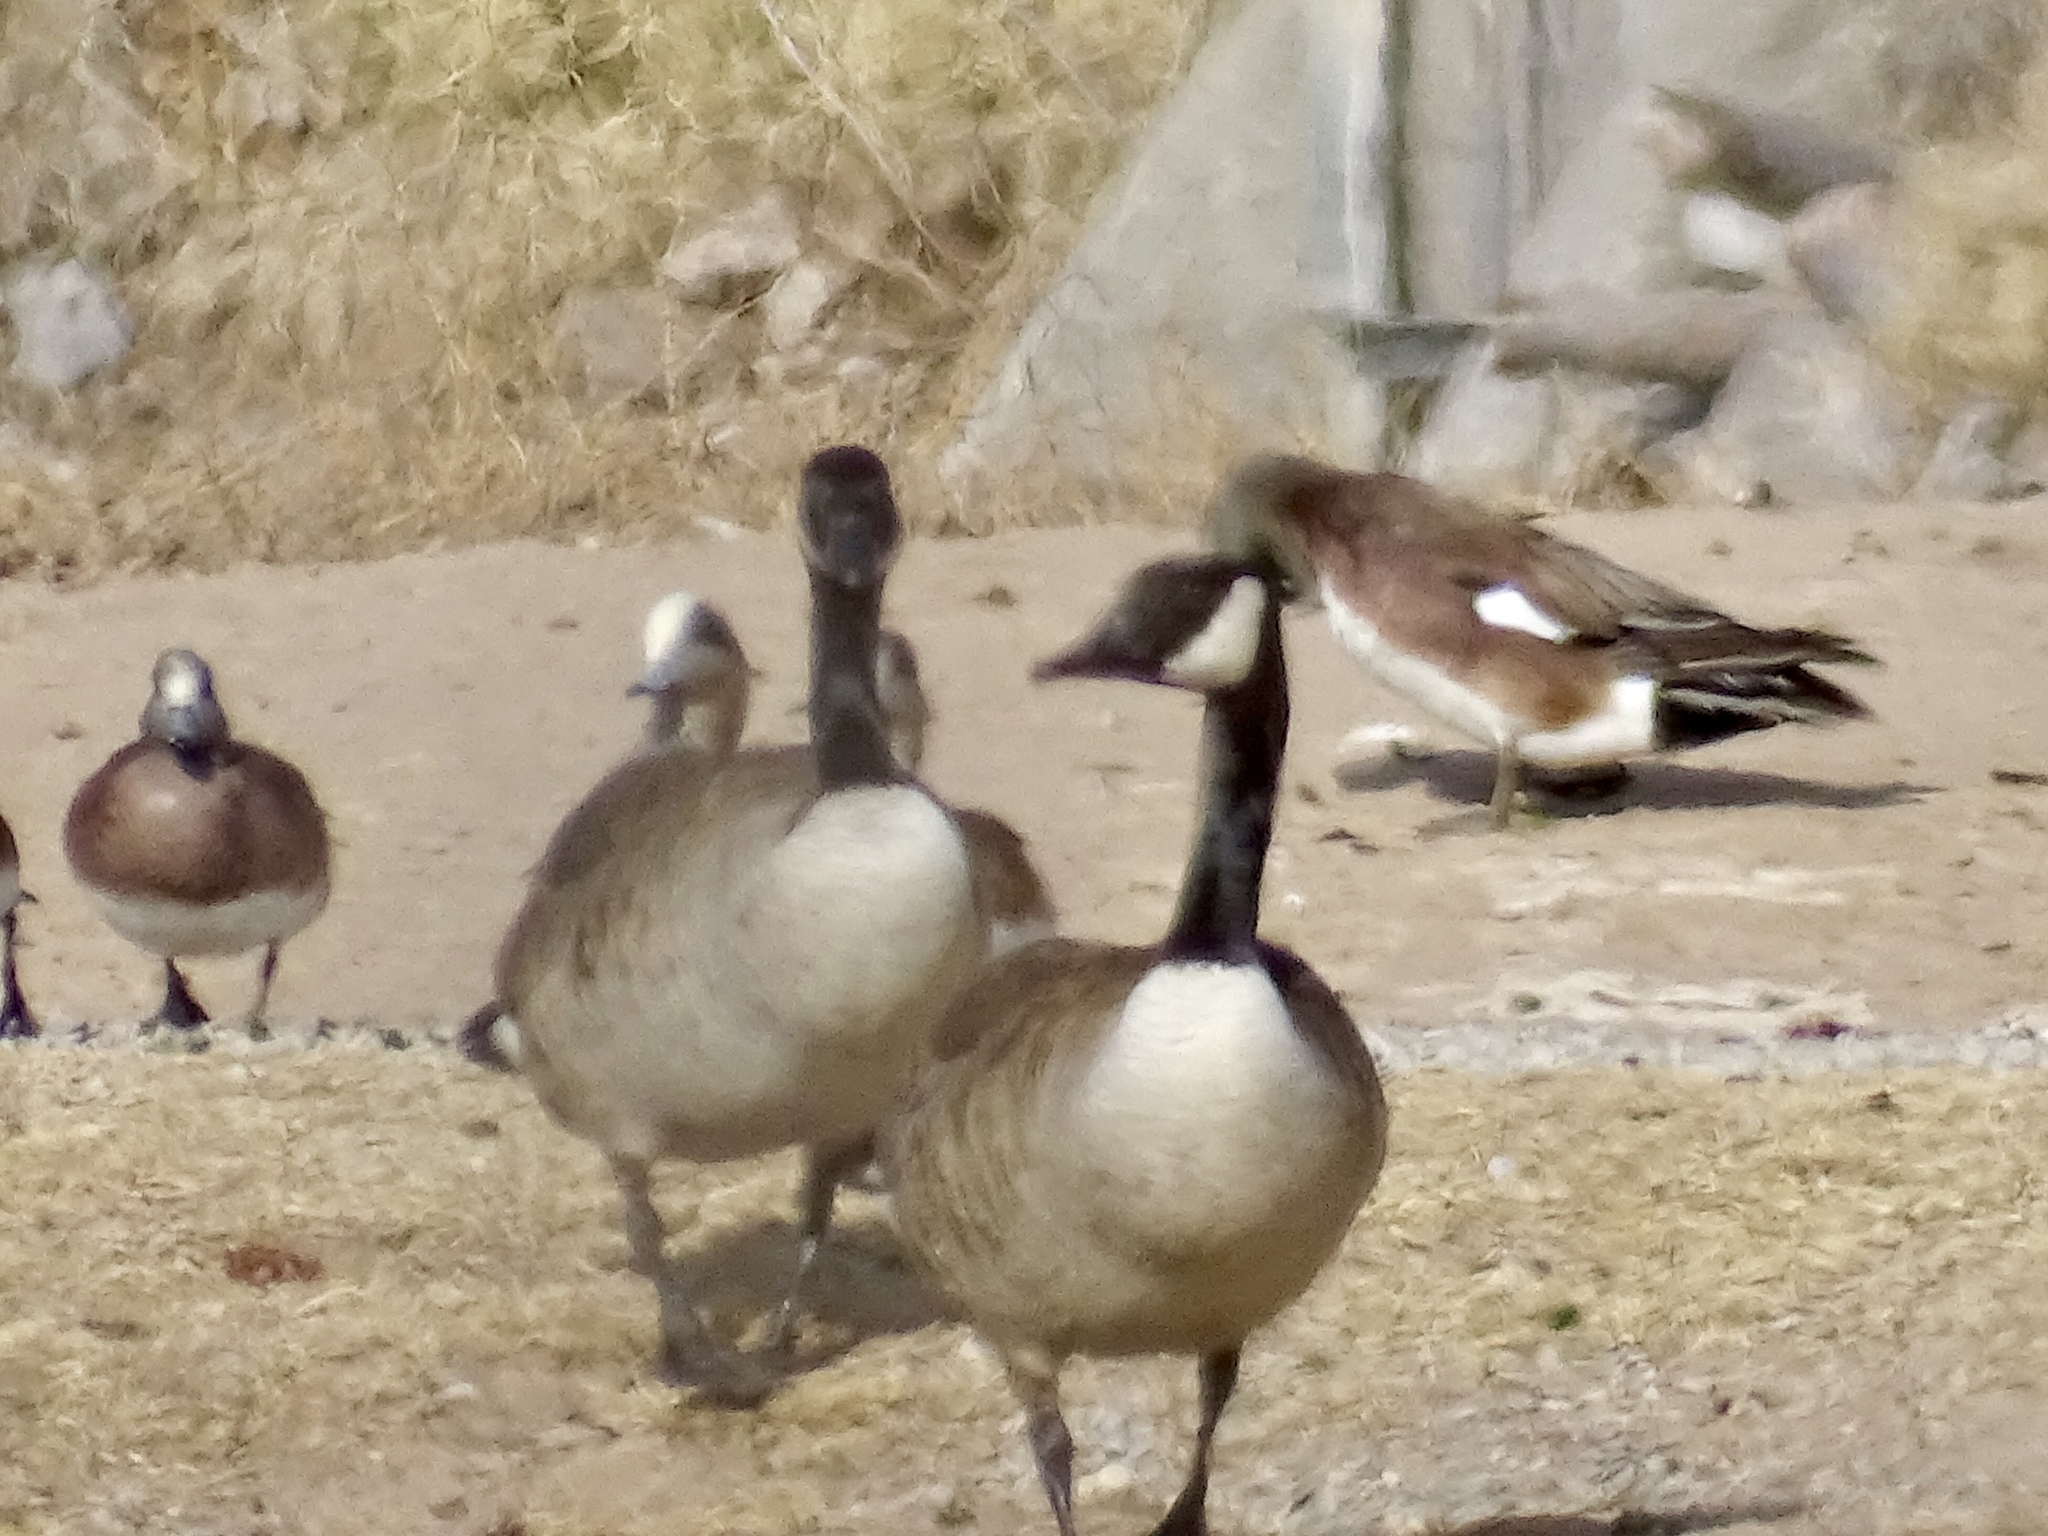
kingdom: Animalia
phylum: Chordata
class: Aves
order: Anseriformes
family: Anatidae
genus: Branta
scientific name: Branta canadensis
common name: Canada goose
